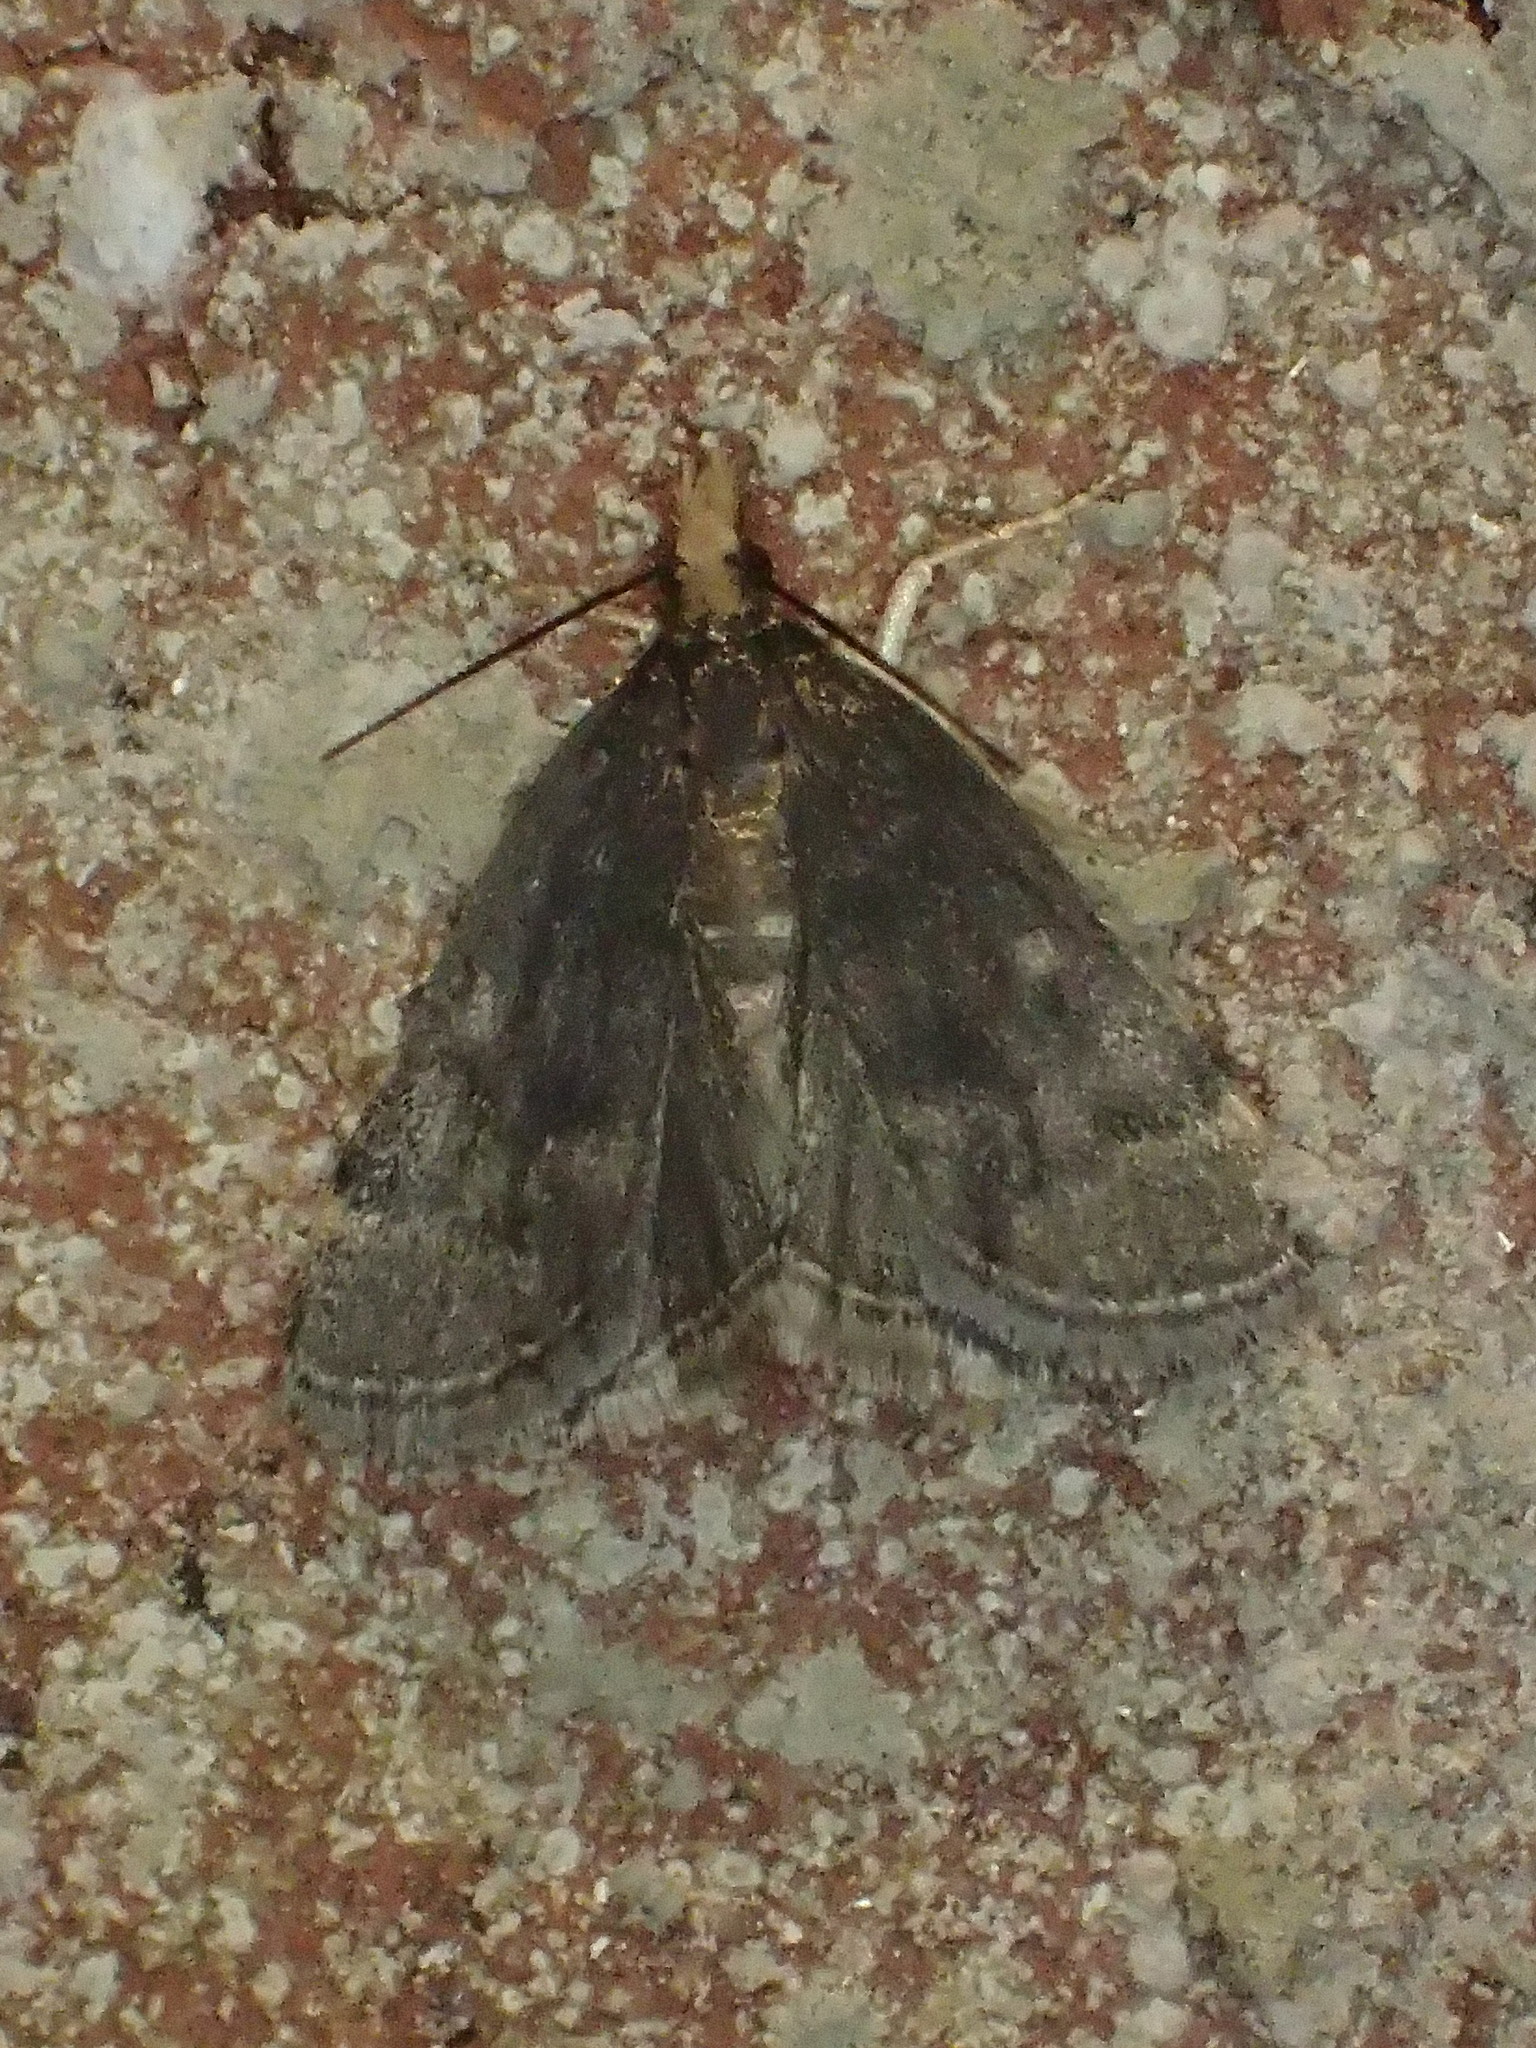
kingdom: Animalia
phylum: Arthropoda
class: Insecta
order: Lepidoptera
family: Crambidae
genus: Pyrausta
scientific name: Pyrausta merrickalis
